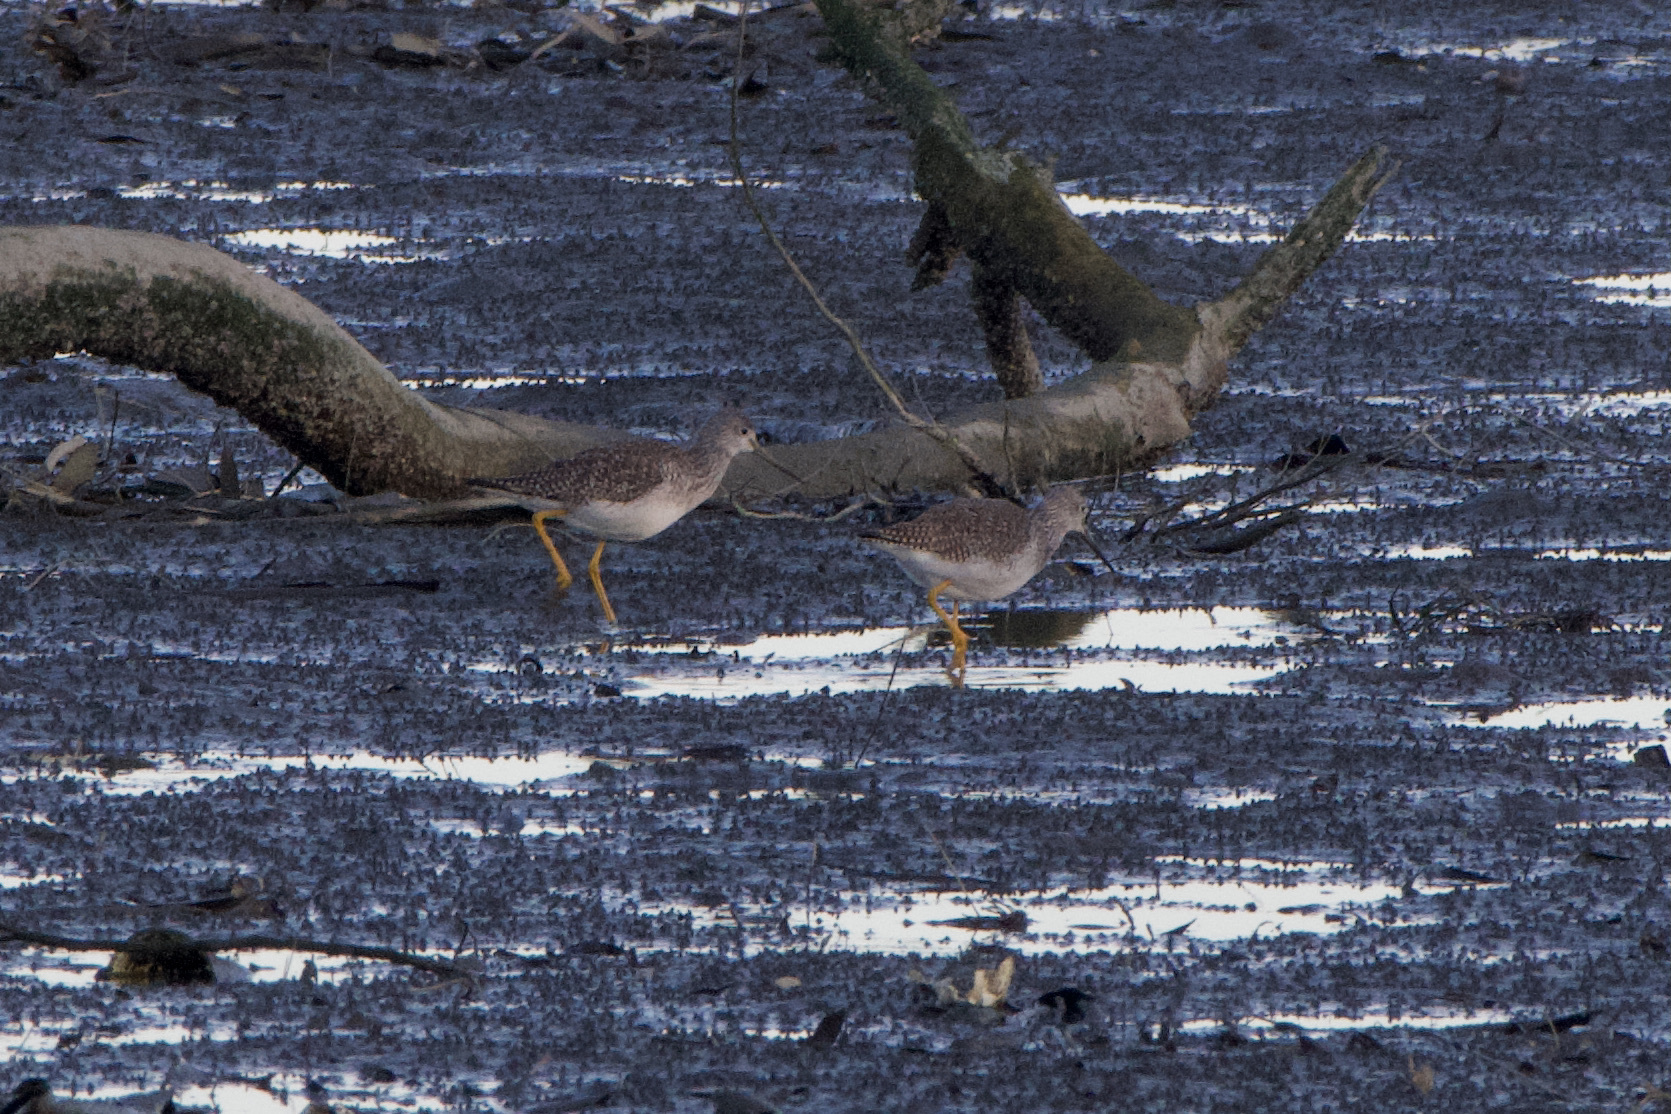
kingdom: Animalia
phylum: Chordata
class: Aves
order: Charadriiformes
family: Scolopacidae
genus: Tringa
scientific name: Tringa melanoleuca
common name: Greater yellowlegs
